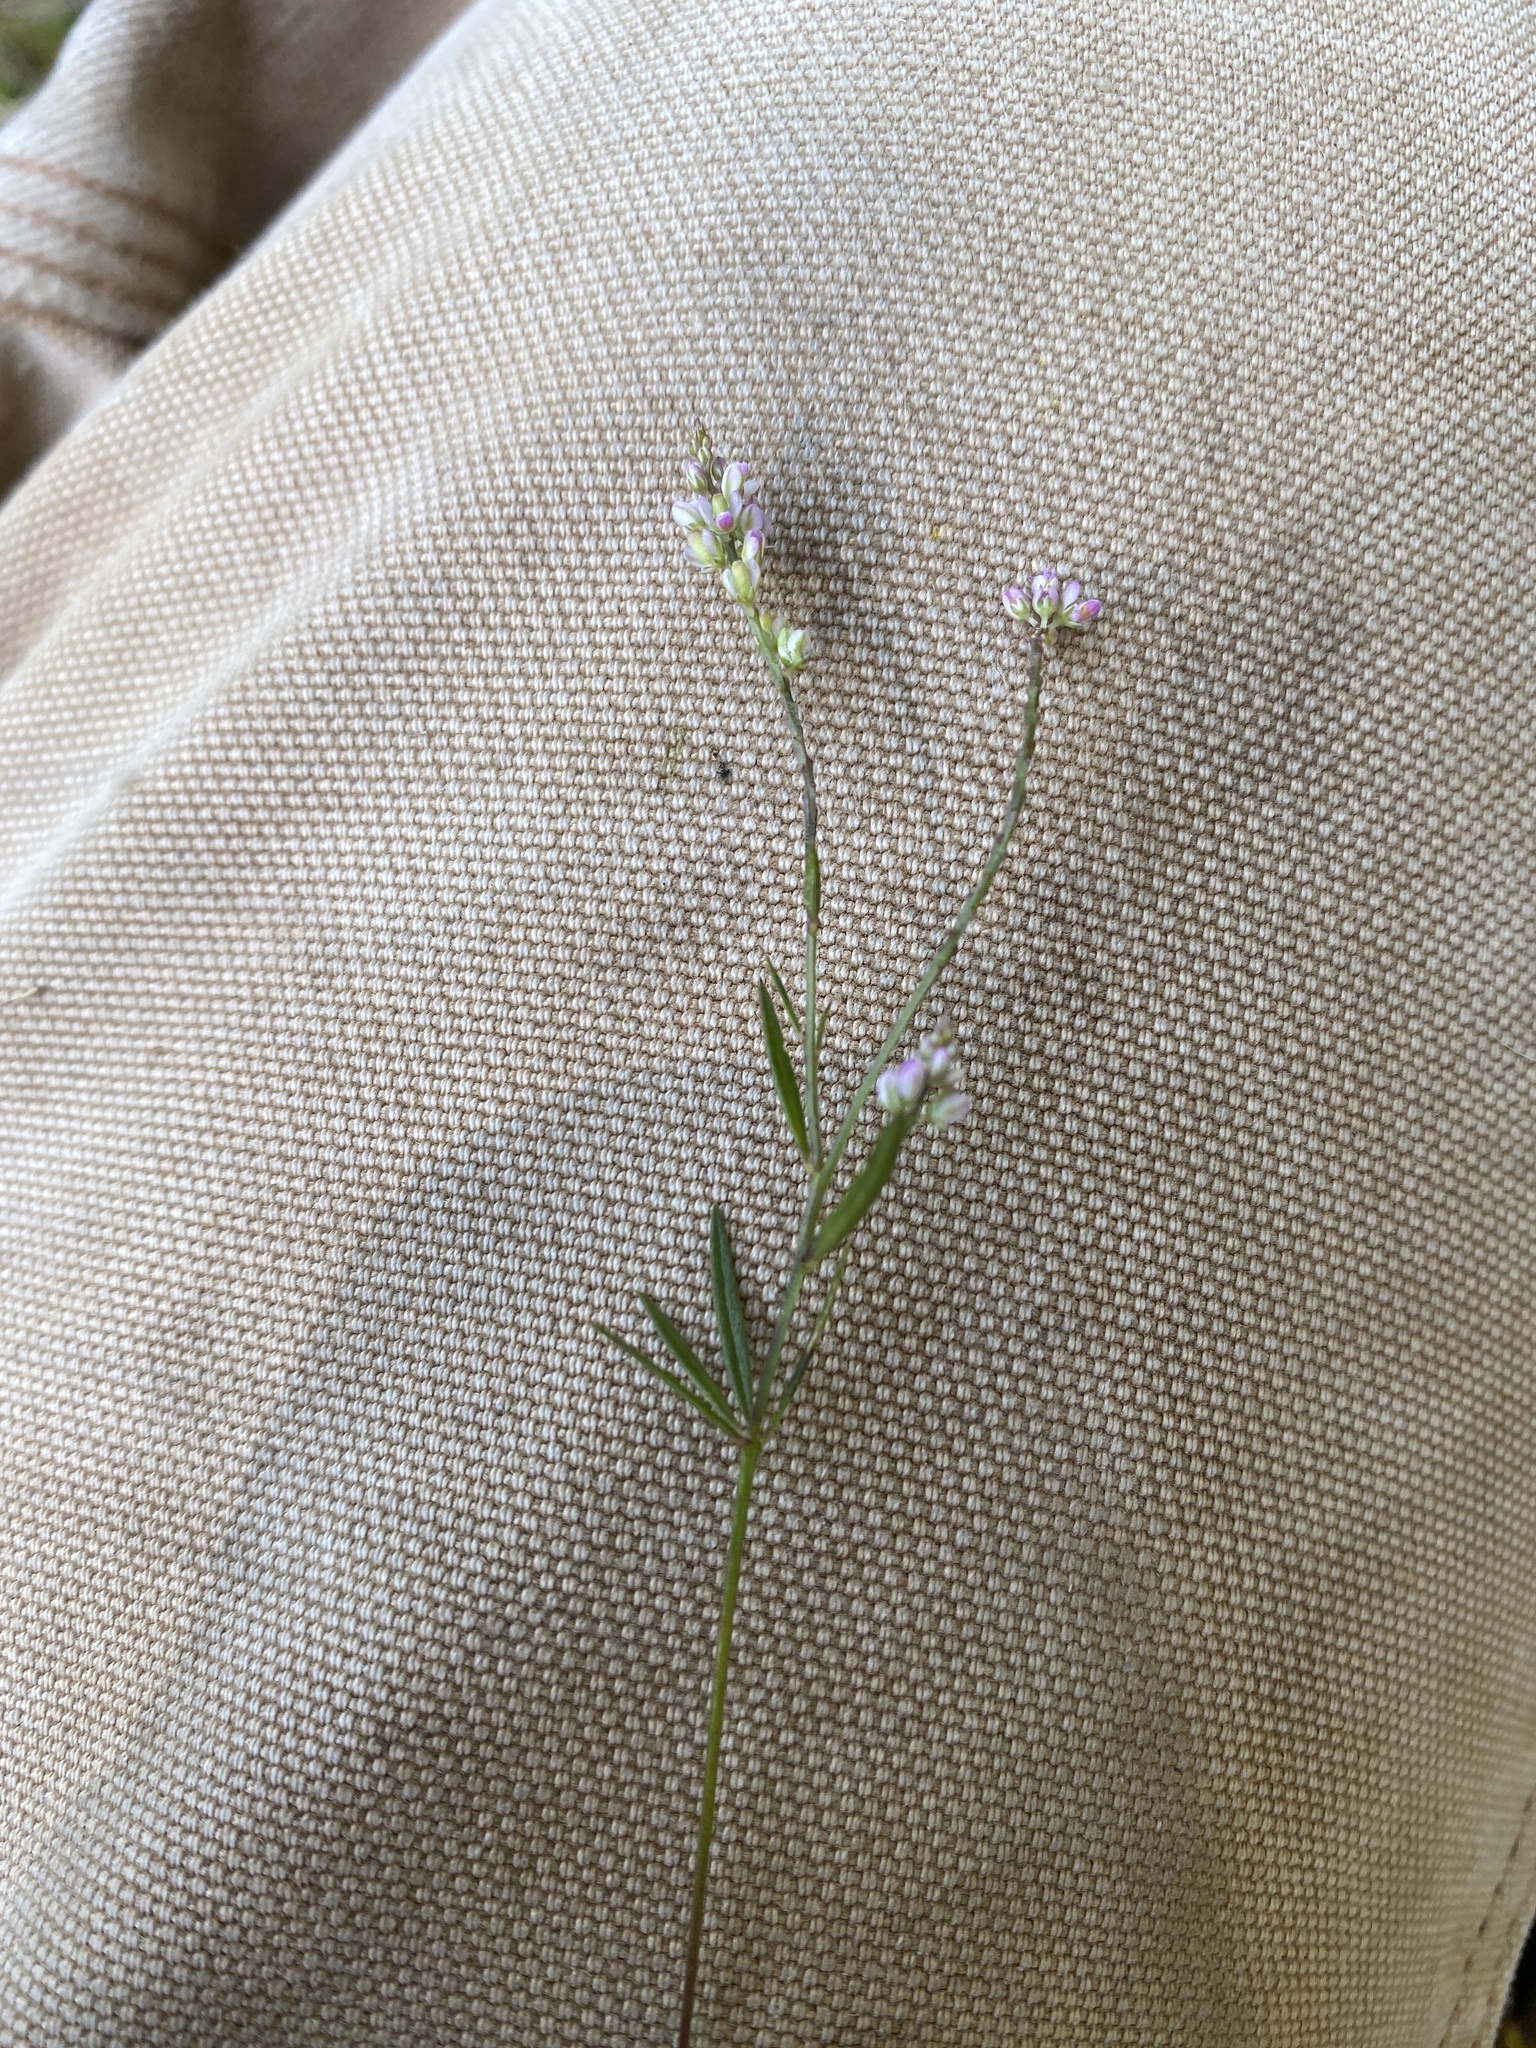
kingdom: Plantae
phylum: Tracheophyta
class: Magnoliopsida
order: Fabales
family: Polygalaceae
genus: Polygala
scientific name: Polygala verticillata
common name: Whorl milkwort
